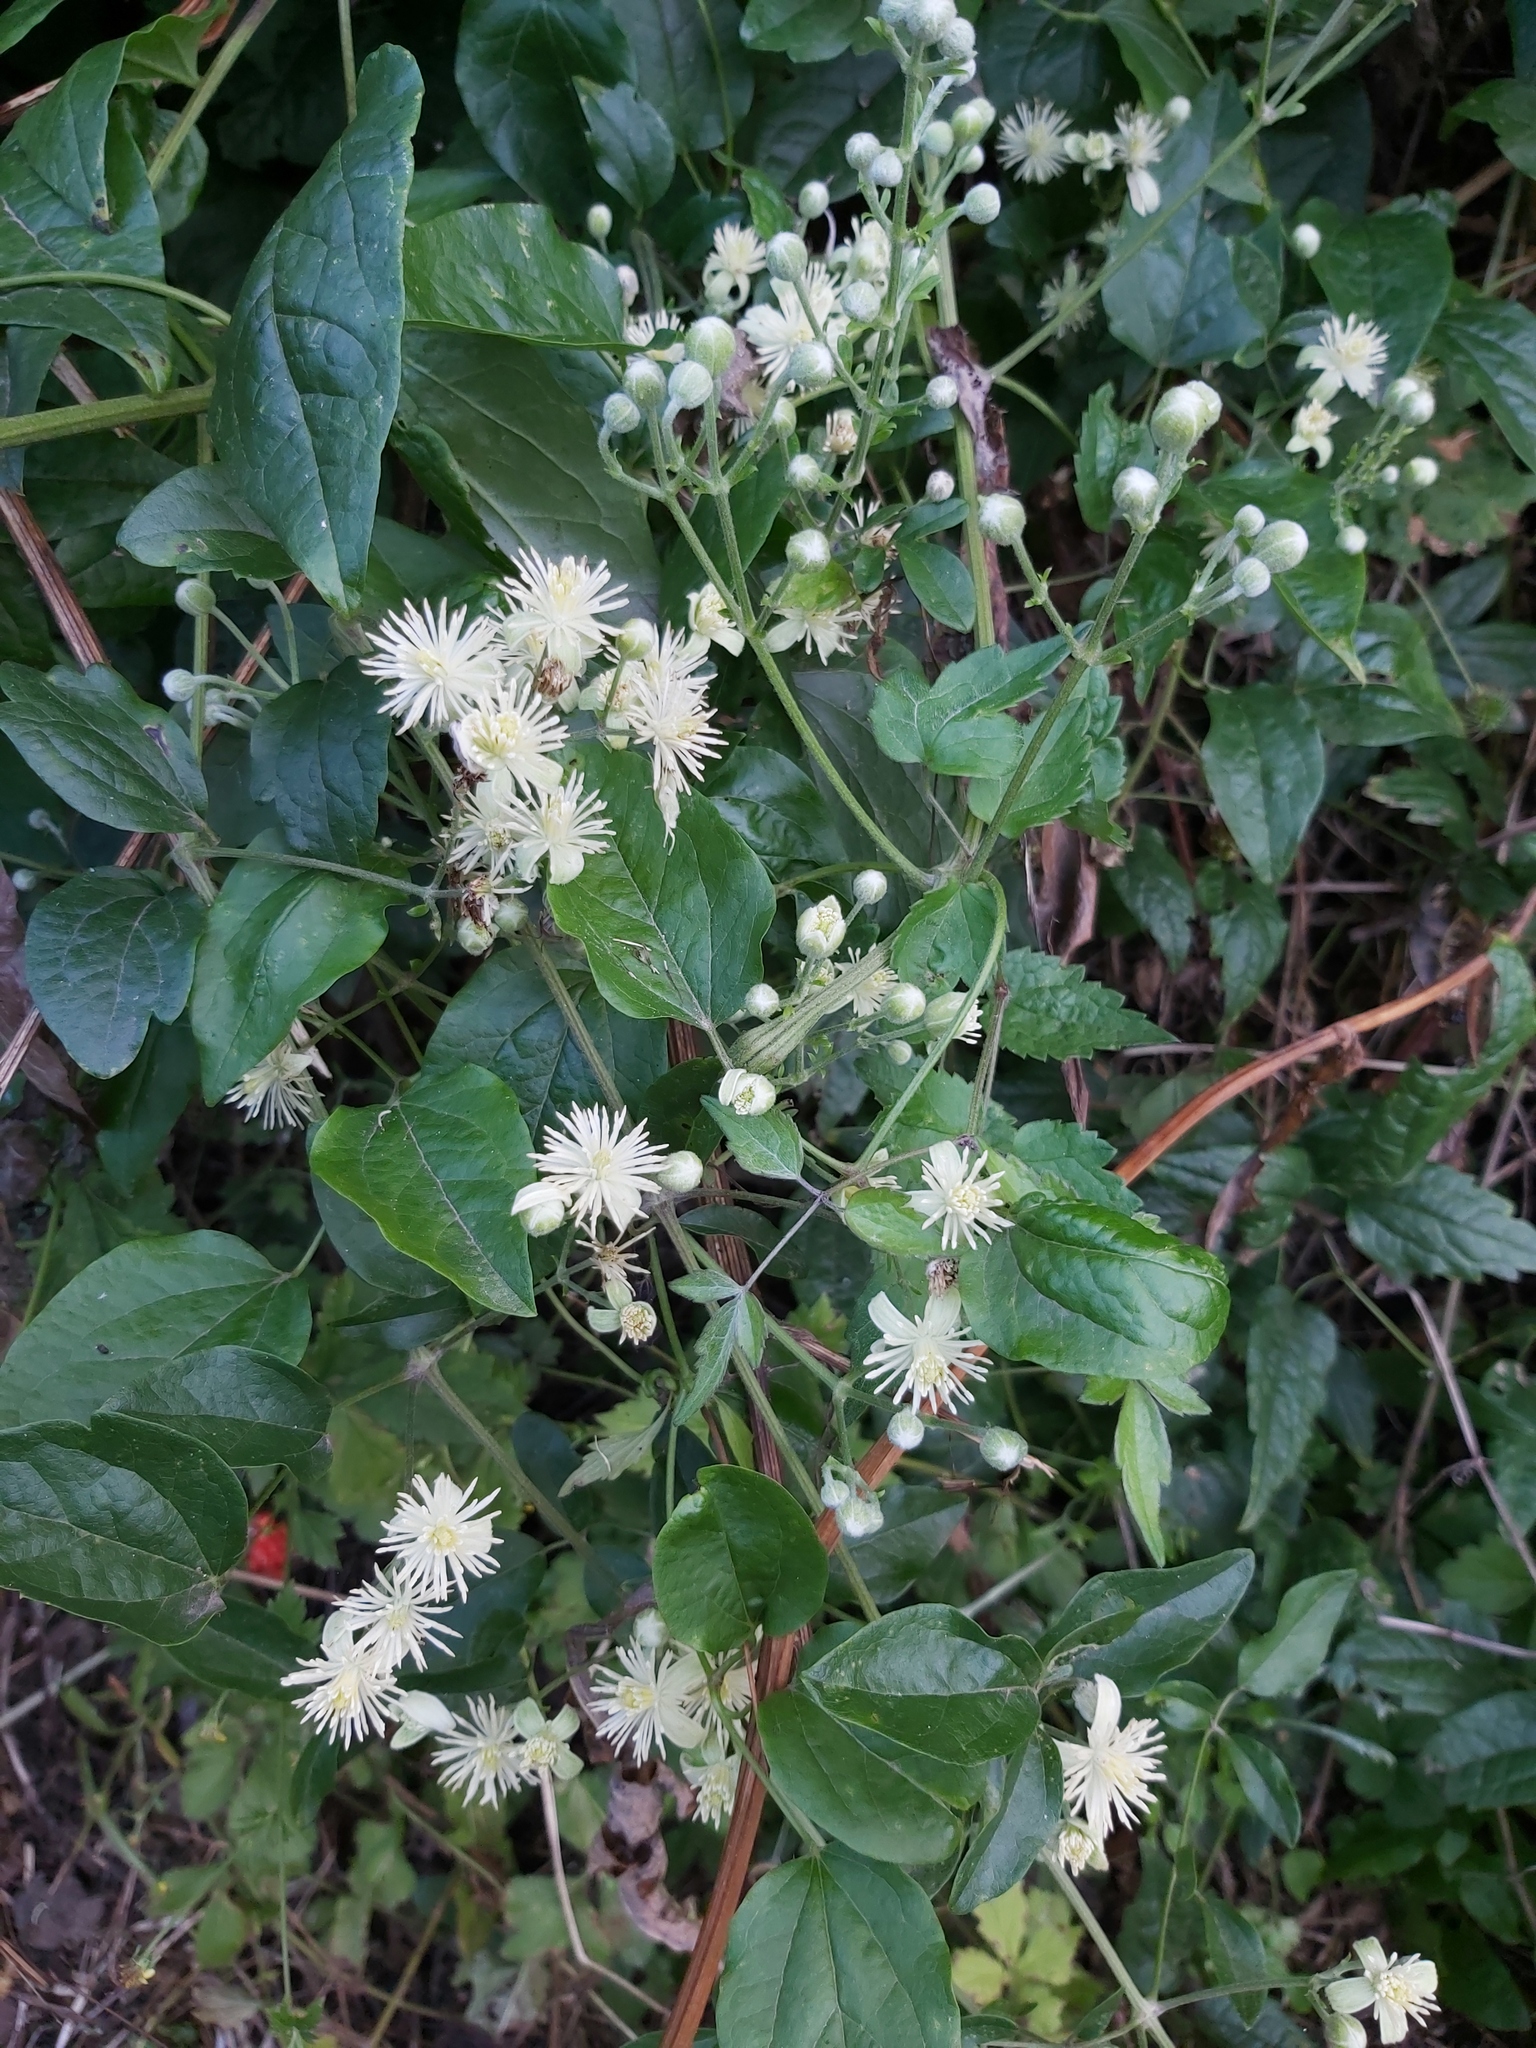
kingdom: Plantae
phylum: Tracheophyta
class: Magnoliopsida
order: Ranunculales
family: Ranunculaceae
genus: Clematis
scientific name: Clematis vitalba
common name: Evergreen clematis
